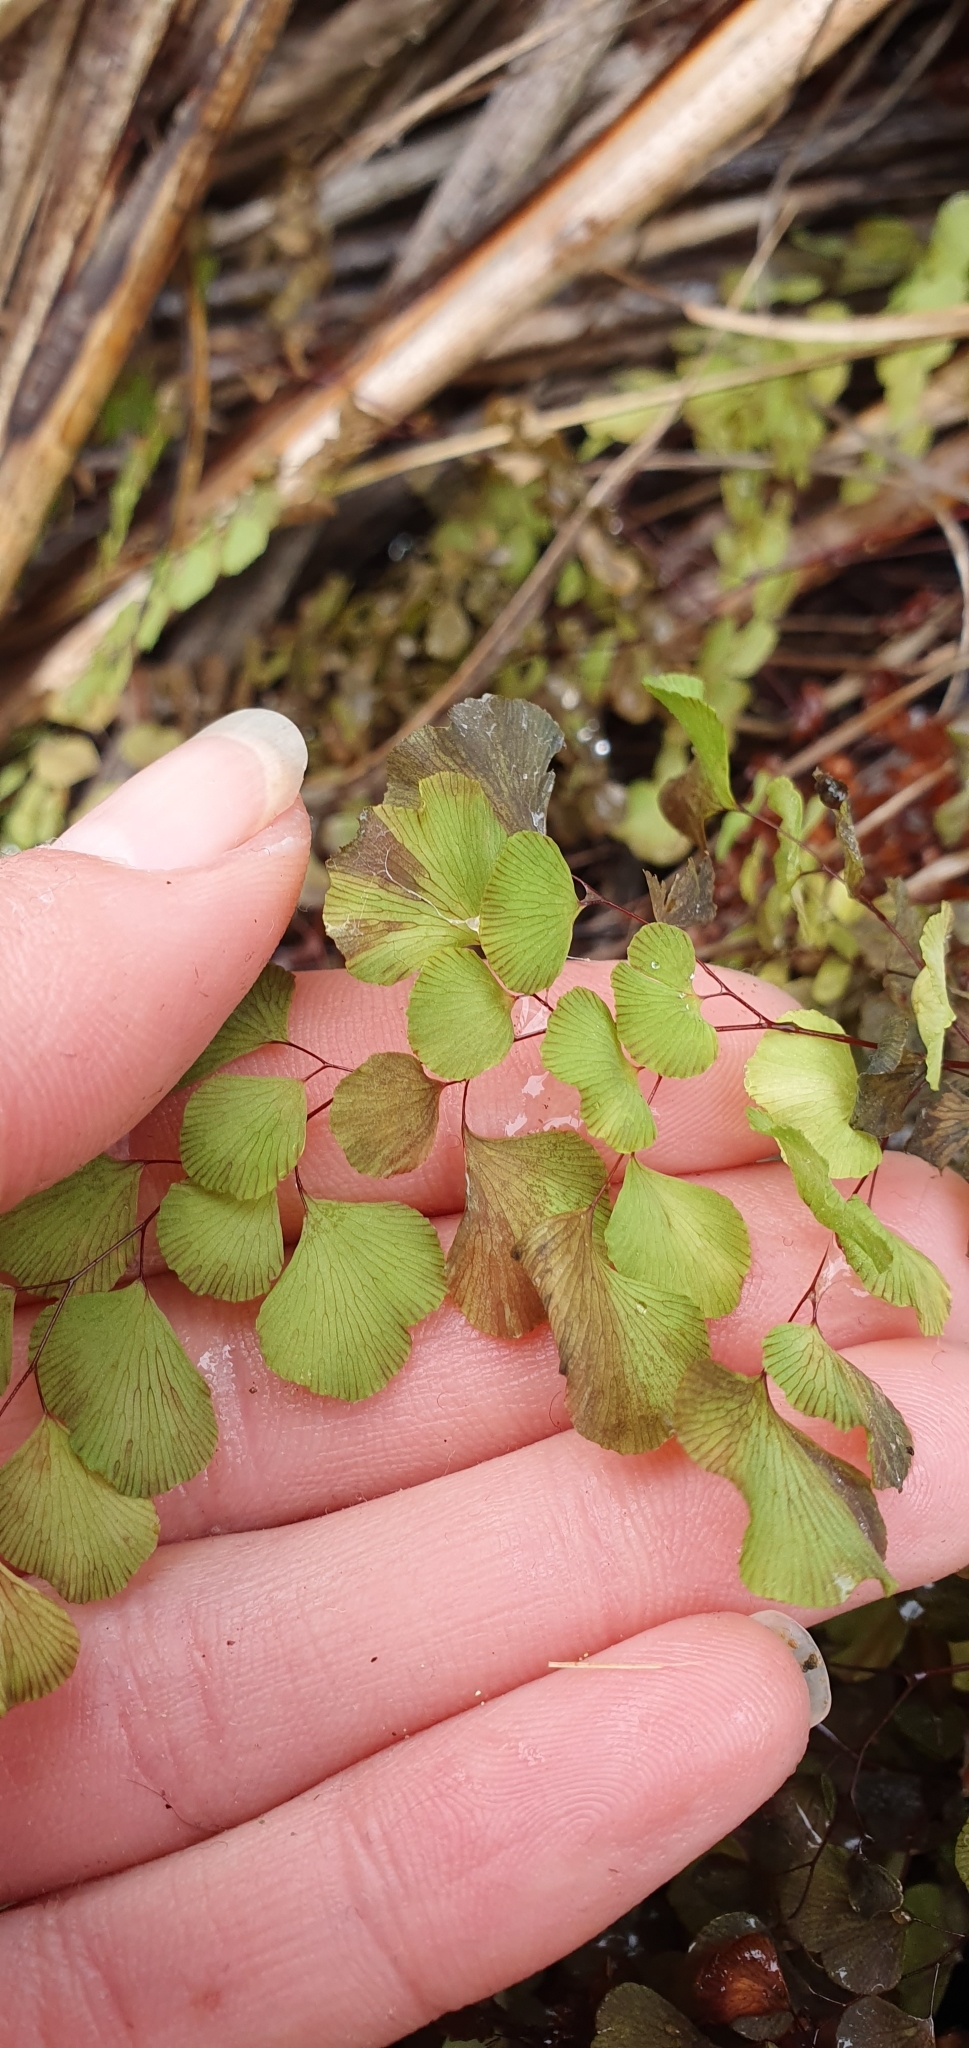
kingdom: Plantae
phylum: Tracheophyta
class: Polypodiopsida
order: Polypodiales
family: Pteridaceae
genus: Adiantum
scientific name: Adiantum aethiopicum
